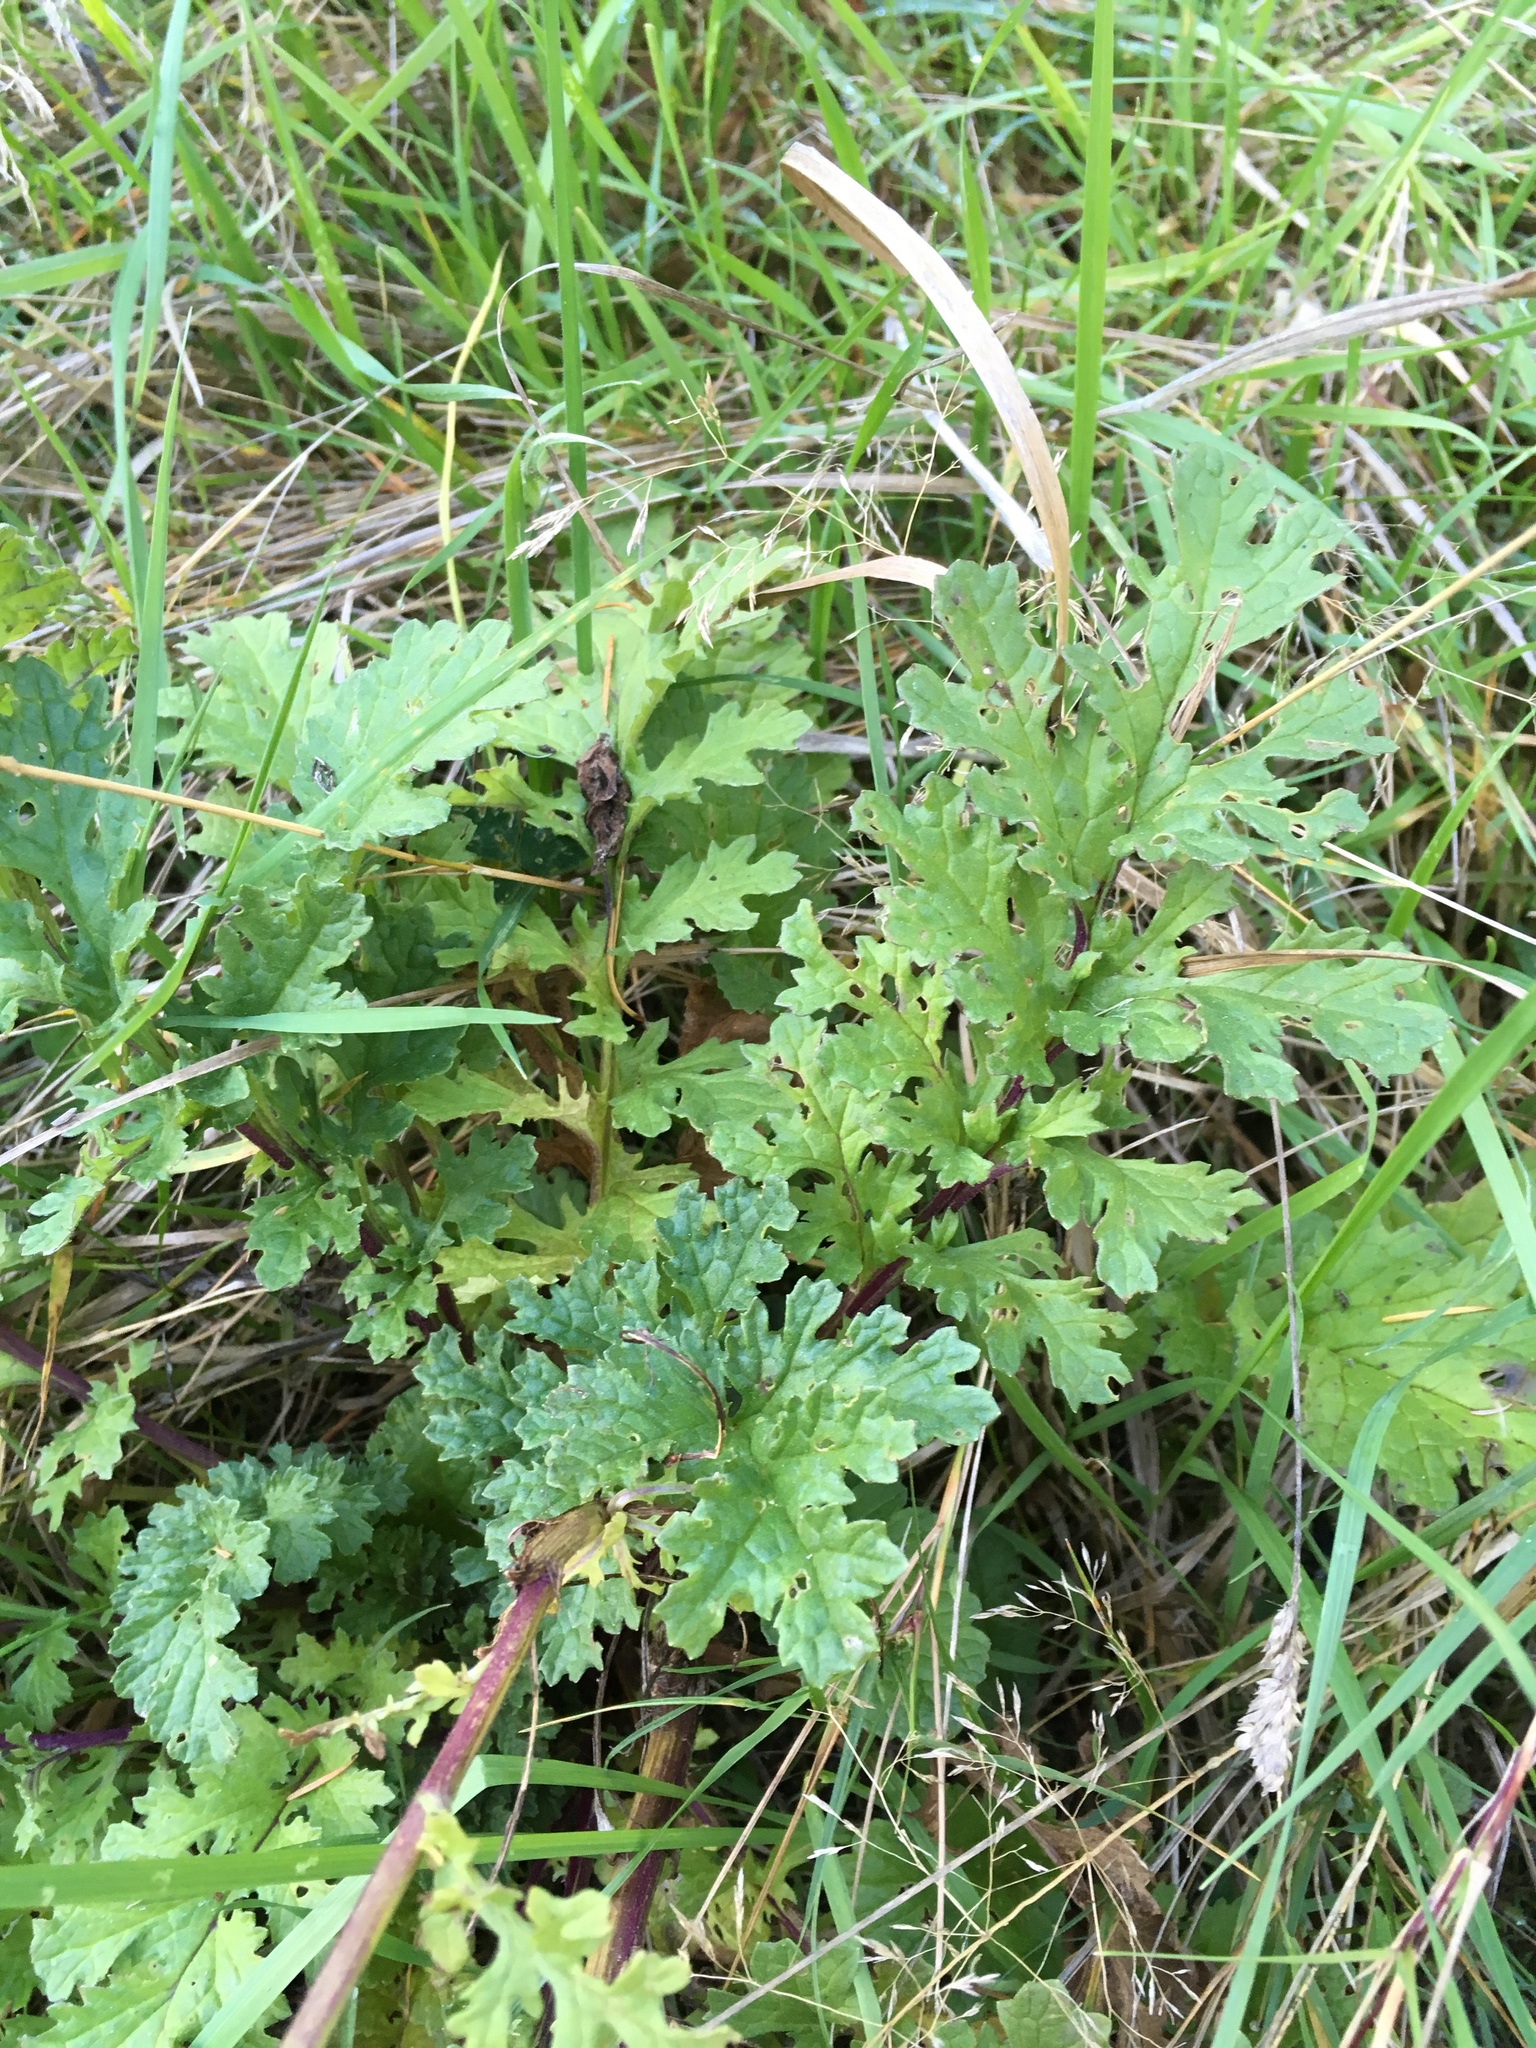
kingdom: Plantae
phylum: Tracheophyta
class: Magnoliopsida
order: Asterales
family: Asteraceae
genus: Jacobaea
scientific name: Jacobaea vulgaris
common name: Stinking willie
